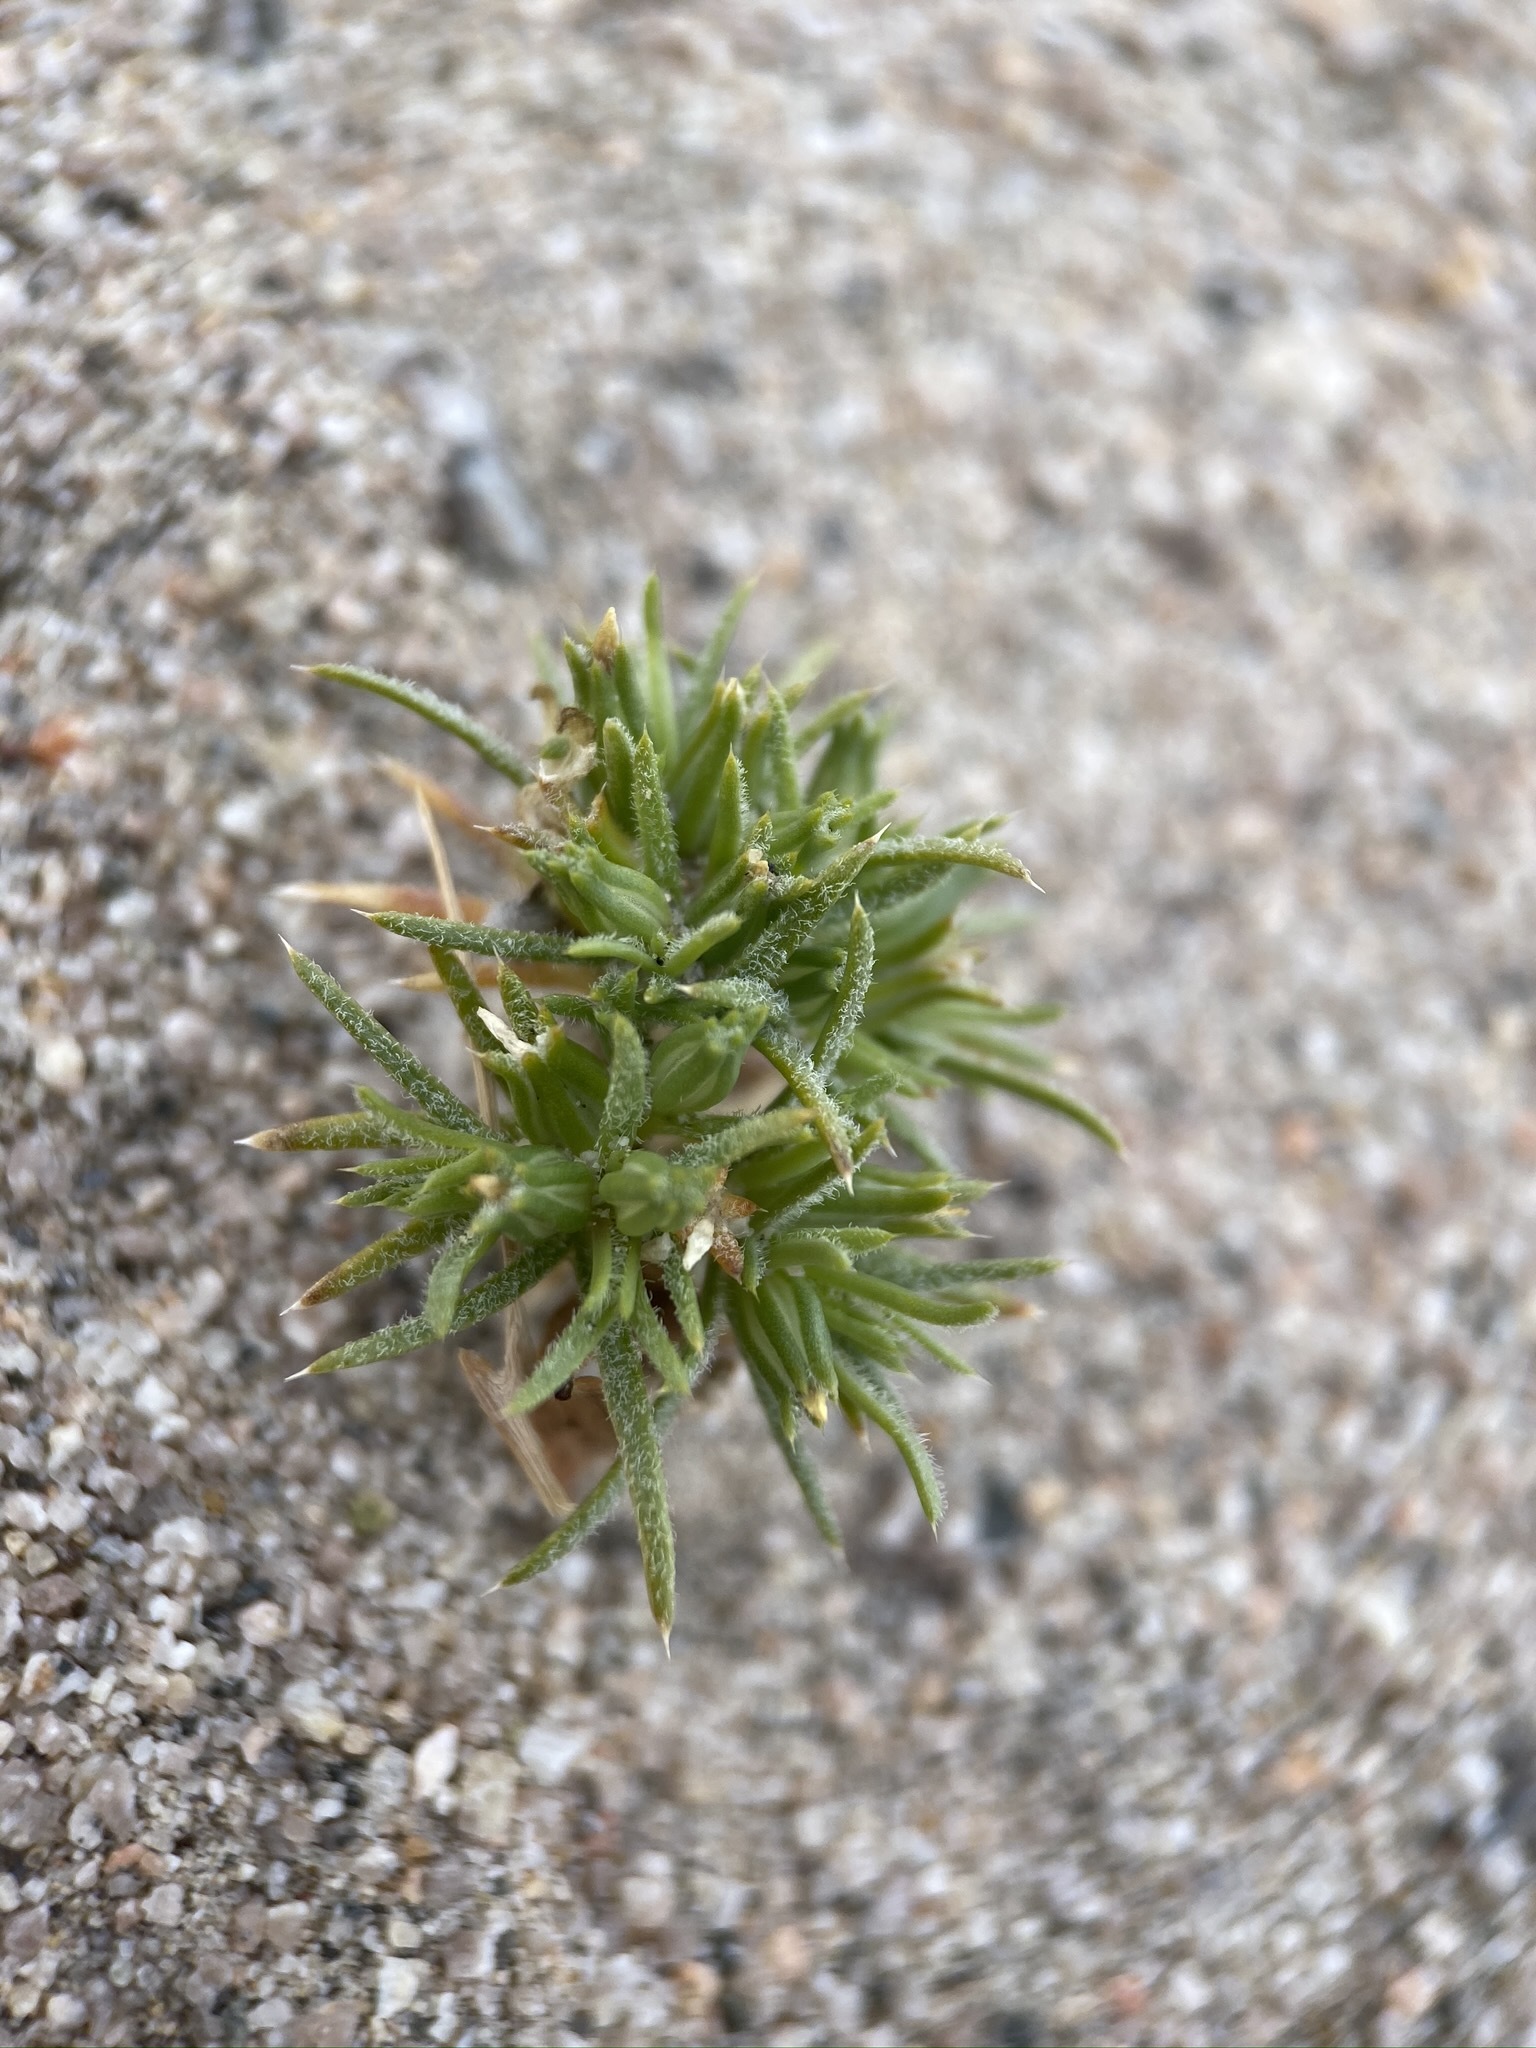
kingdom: Plantae
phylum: Tracheophyta
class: Magnoliopsida
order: Ericales
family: Polemoniaceae
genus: Linanthus
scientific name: Linanthus arenicola
